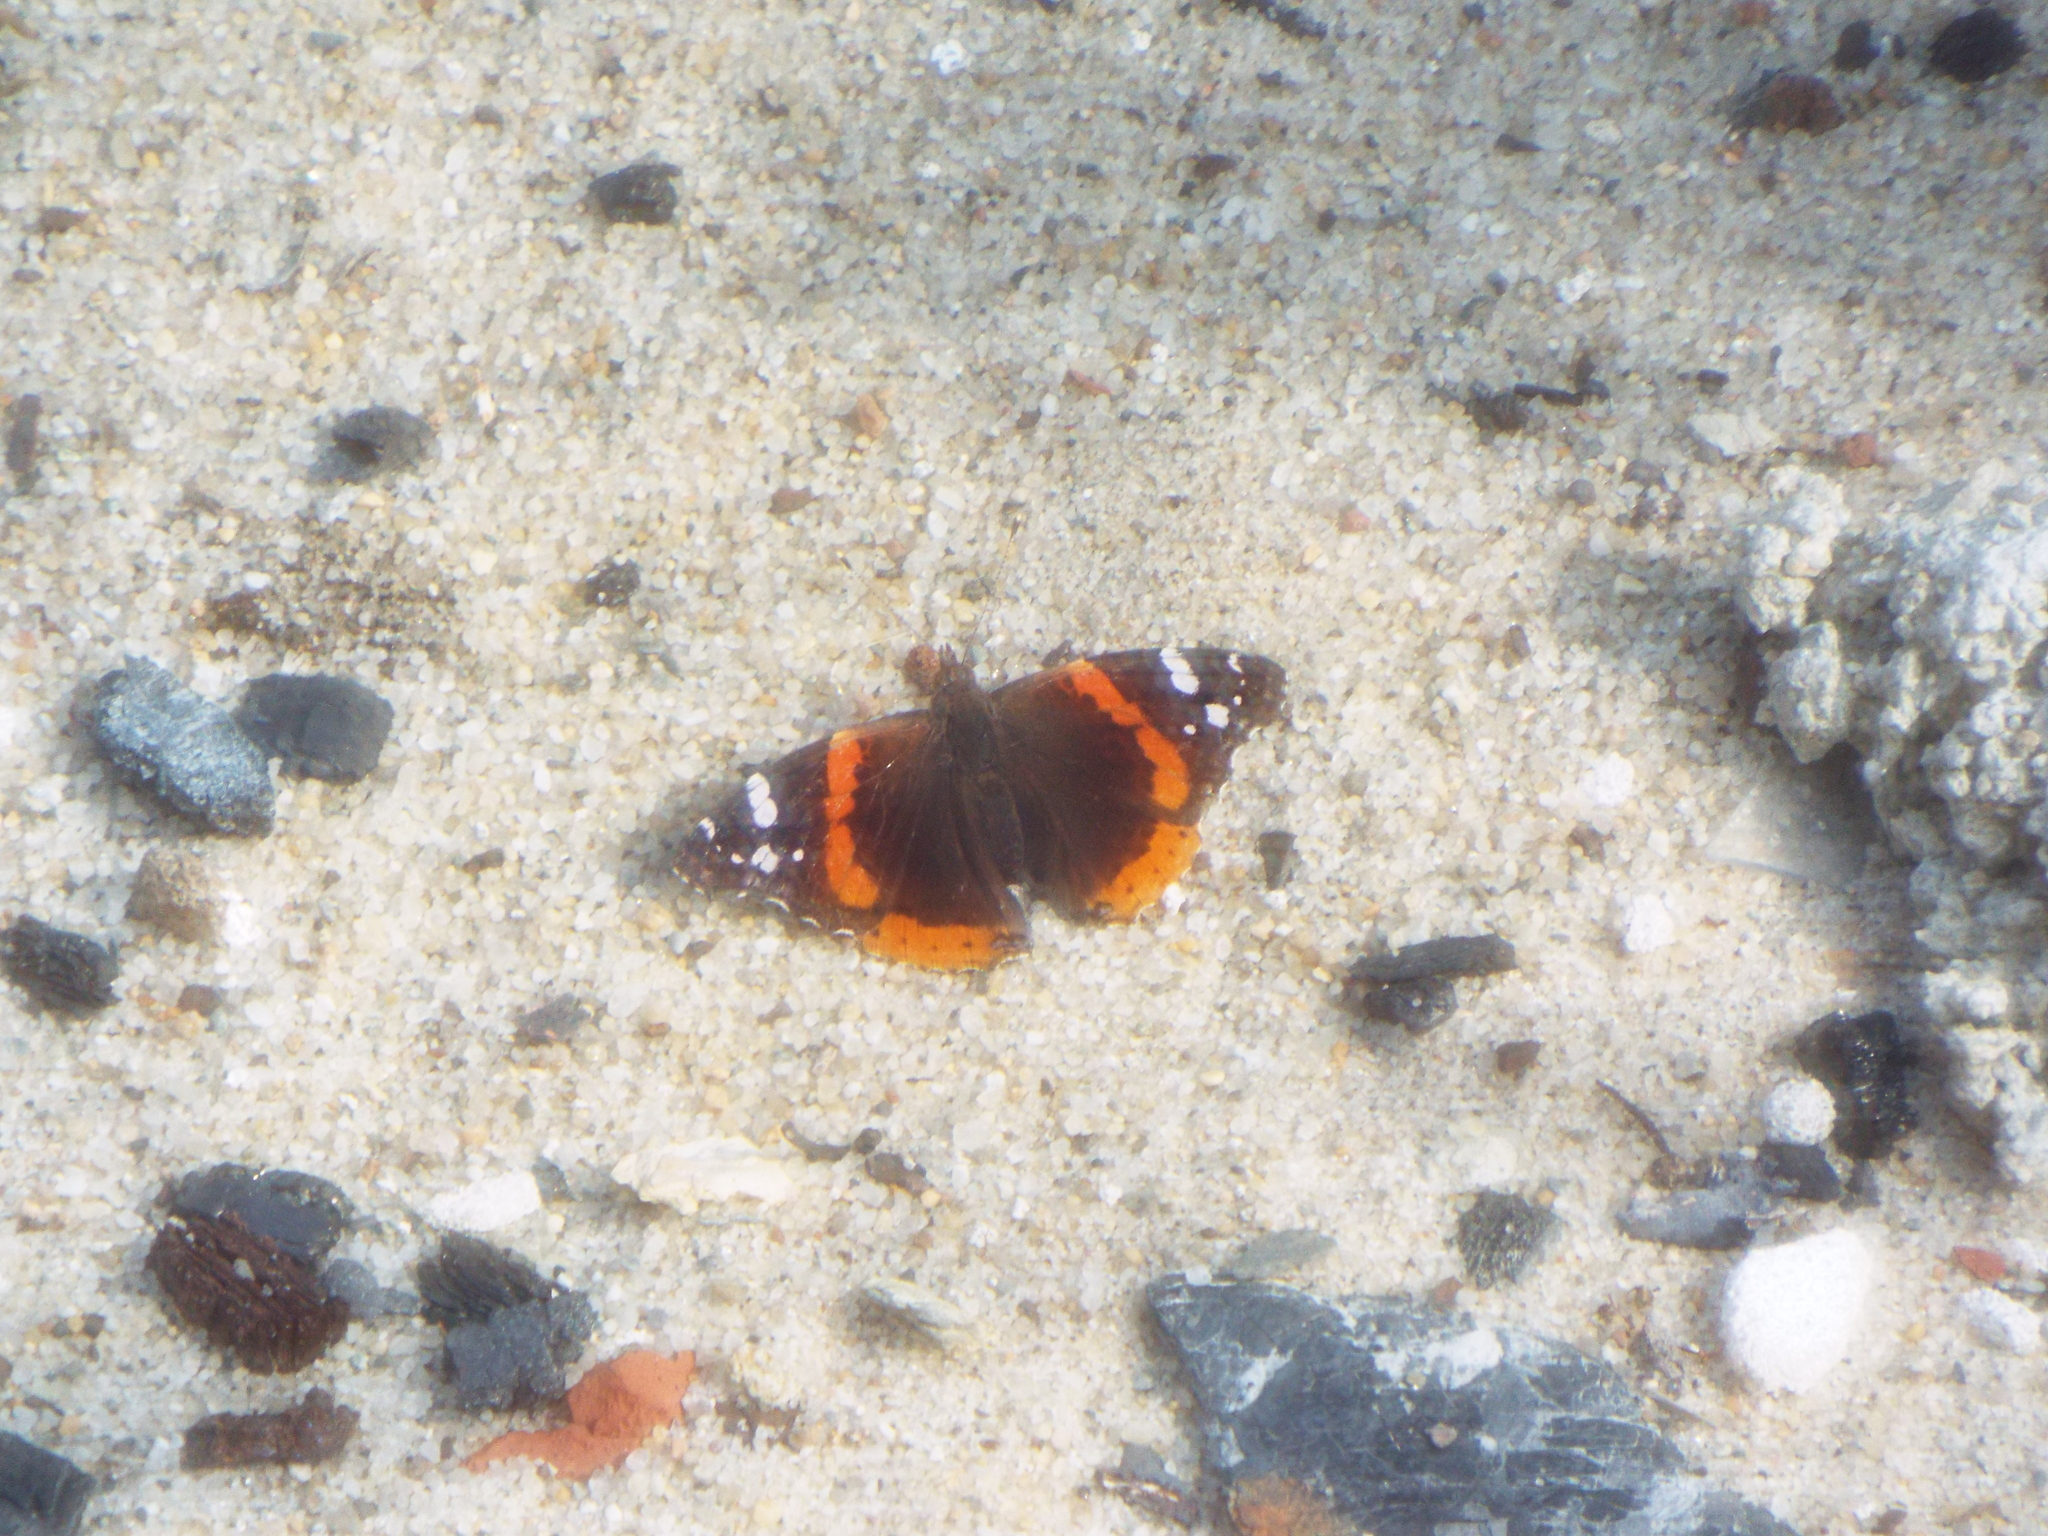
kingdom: Animalia
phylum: Arthropoda
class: Insecta
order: Lepidoptera
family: Nymphalidae
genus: Vanessa
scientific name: Vanessa atalanta
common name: Red admiral
